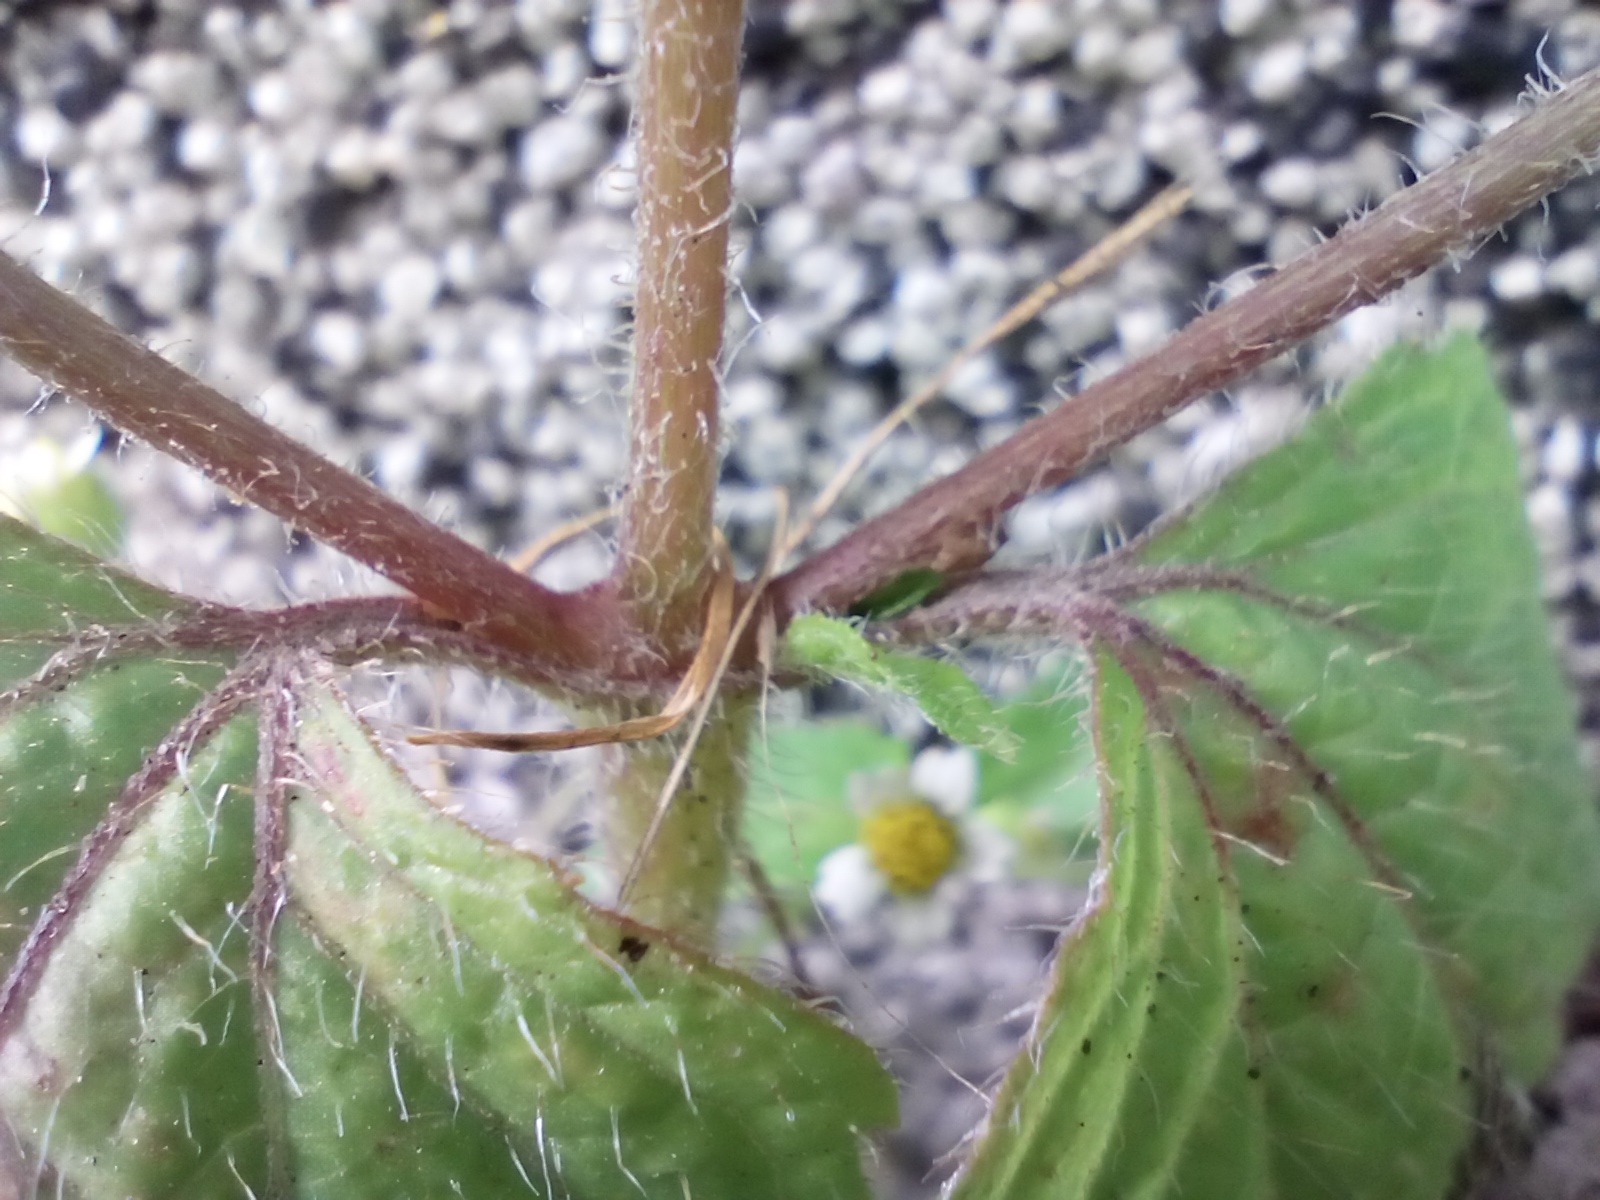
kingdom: Plantae
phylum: Tracheophyta
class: Magnoliopsida
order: Asterales
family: Asteraceae
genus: Galinsoga
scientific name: Galinsoga quadriradiata
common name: Shaggy soldier
